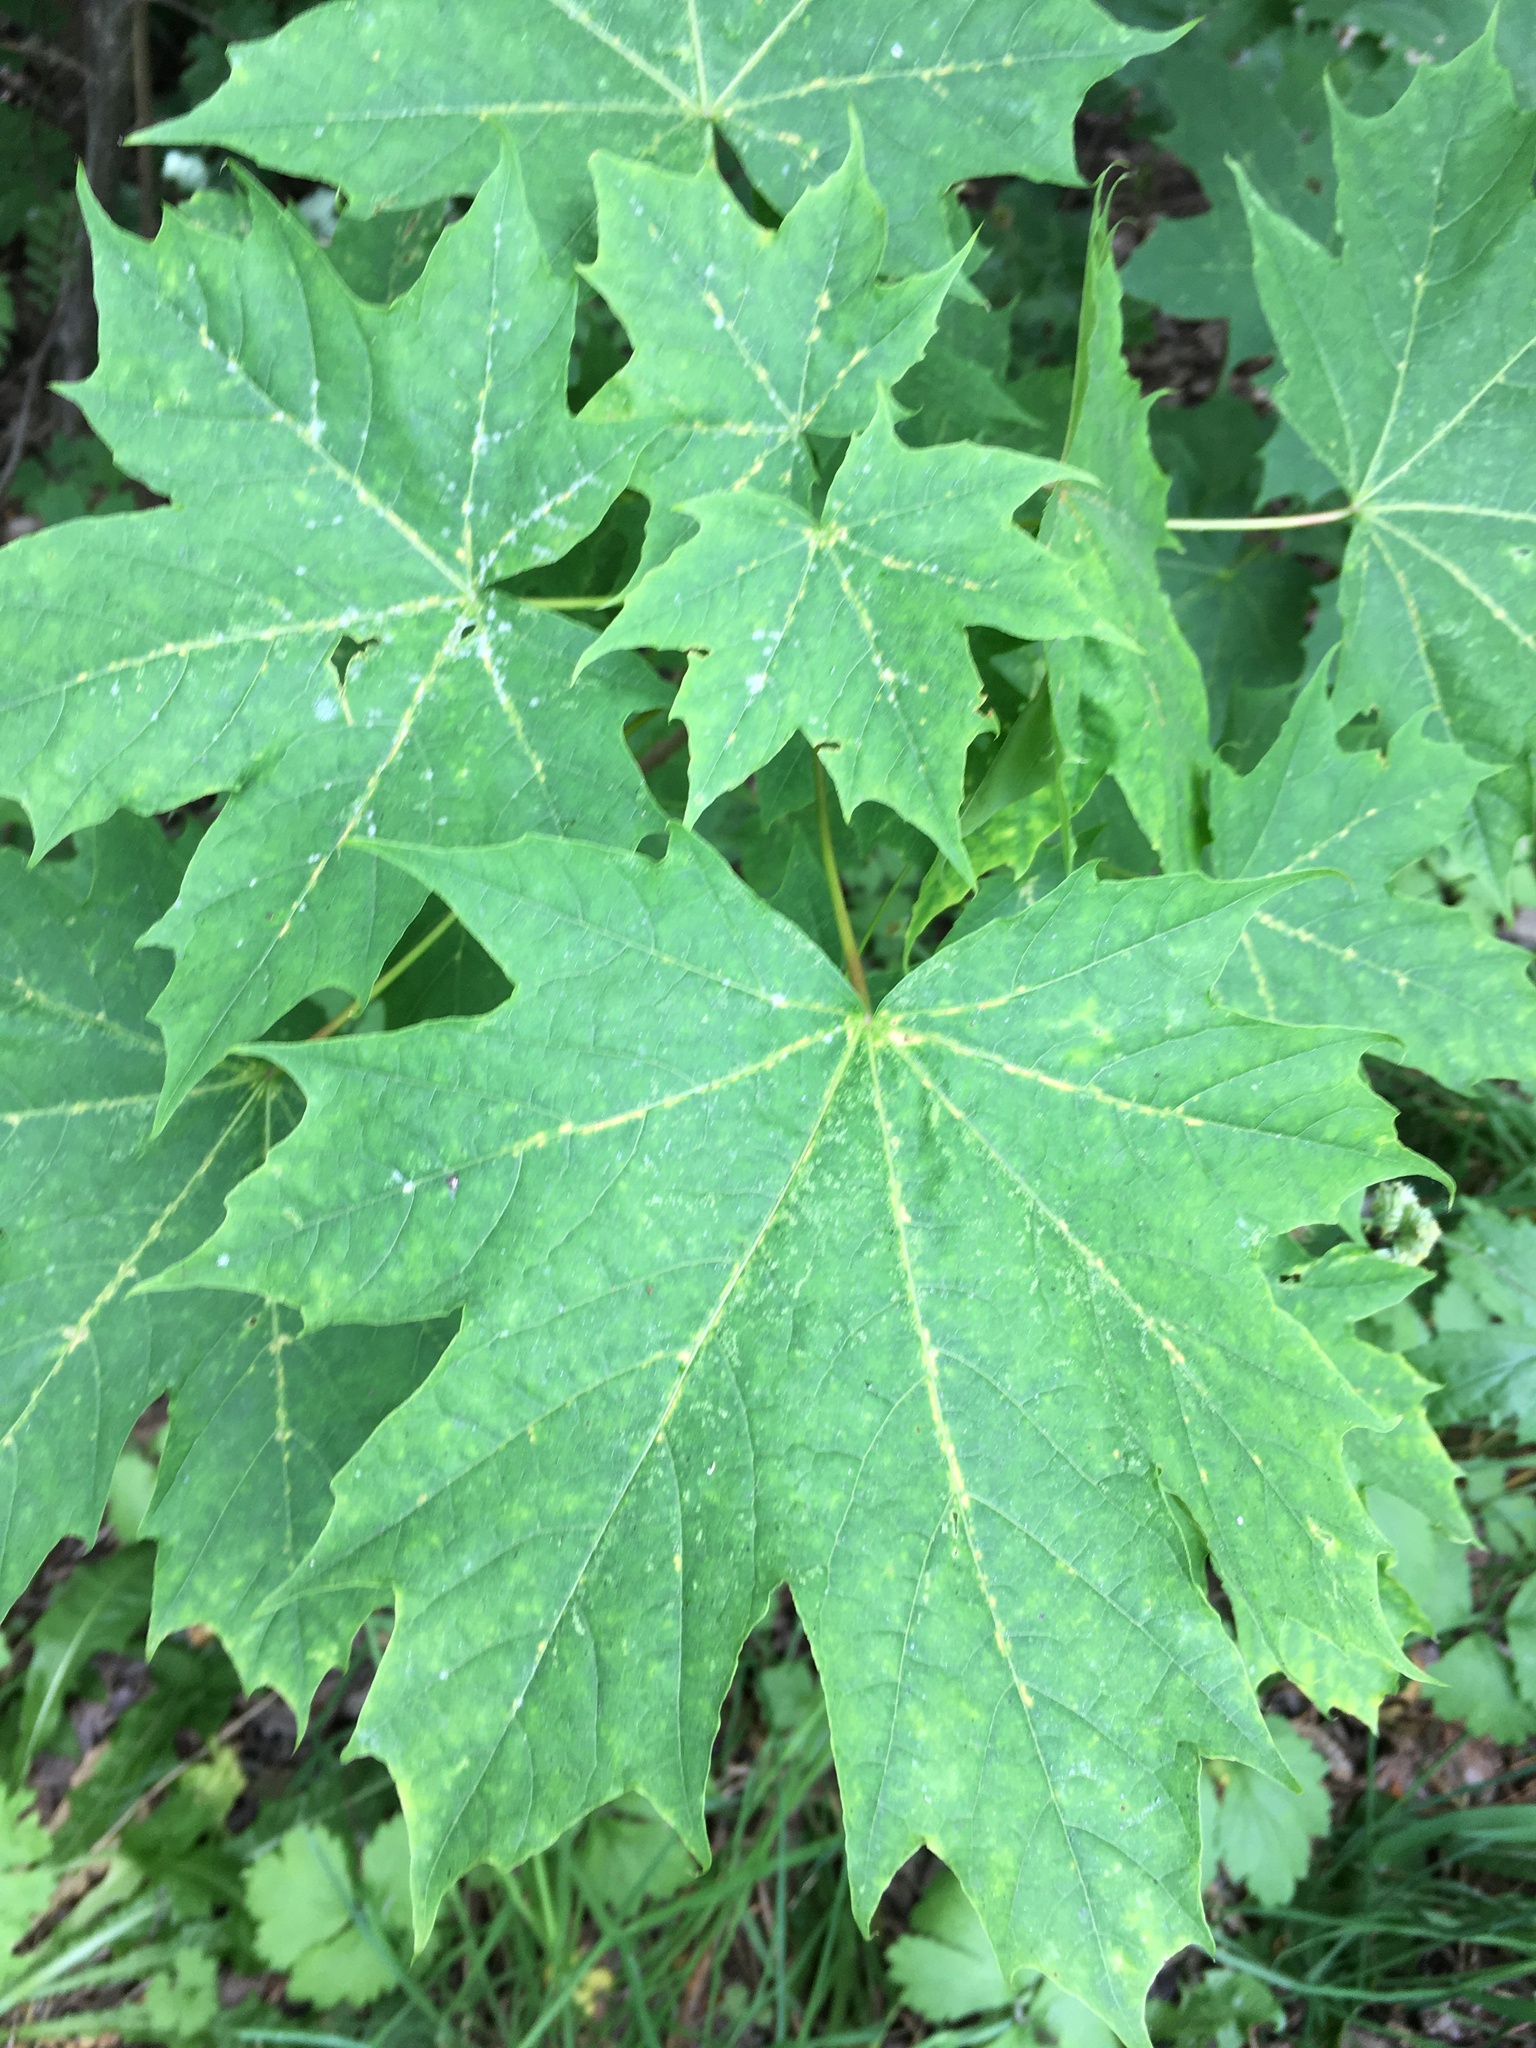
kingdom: Plantae
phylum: Tracheophyta
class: Magnoliopsida
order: Sapindales
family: Sapindaceae
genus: Acer
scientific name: Acer platanoides
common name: Norway maple
